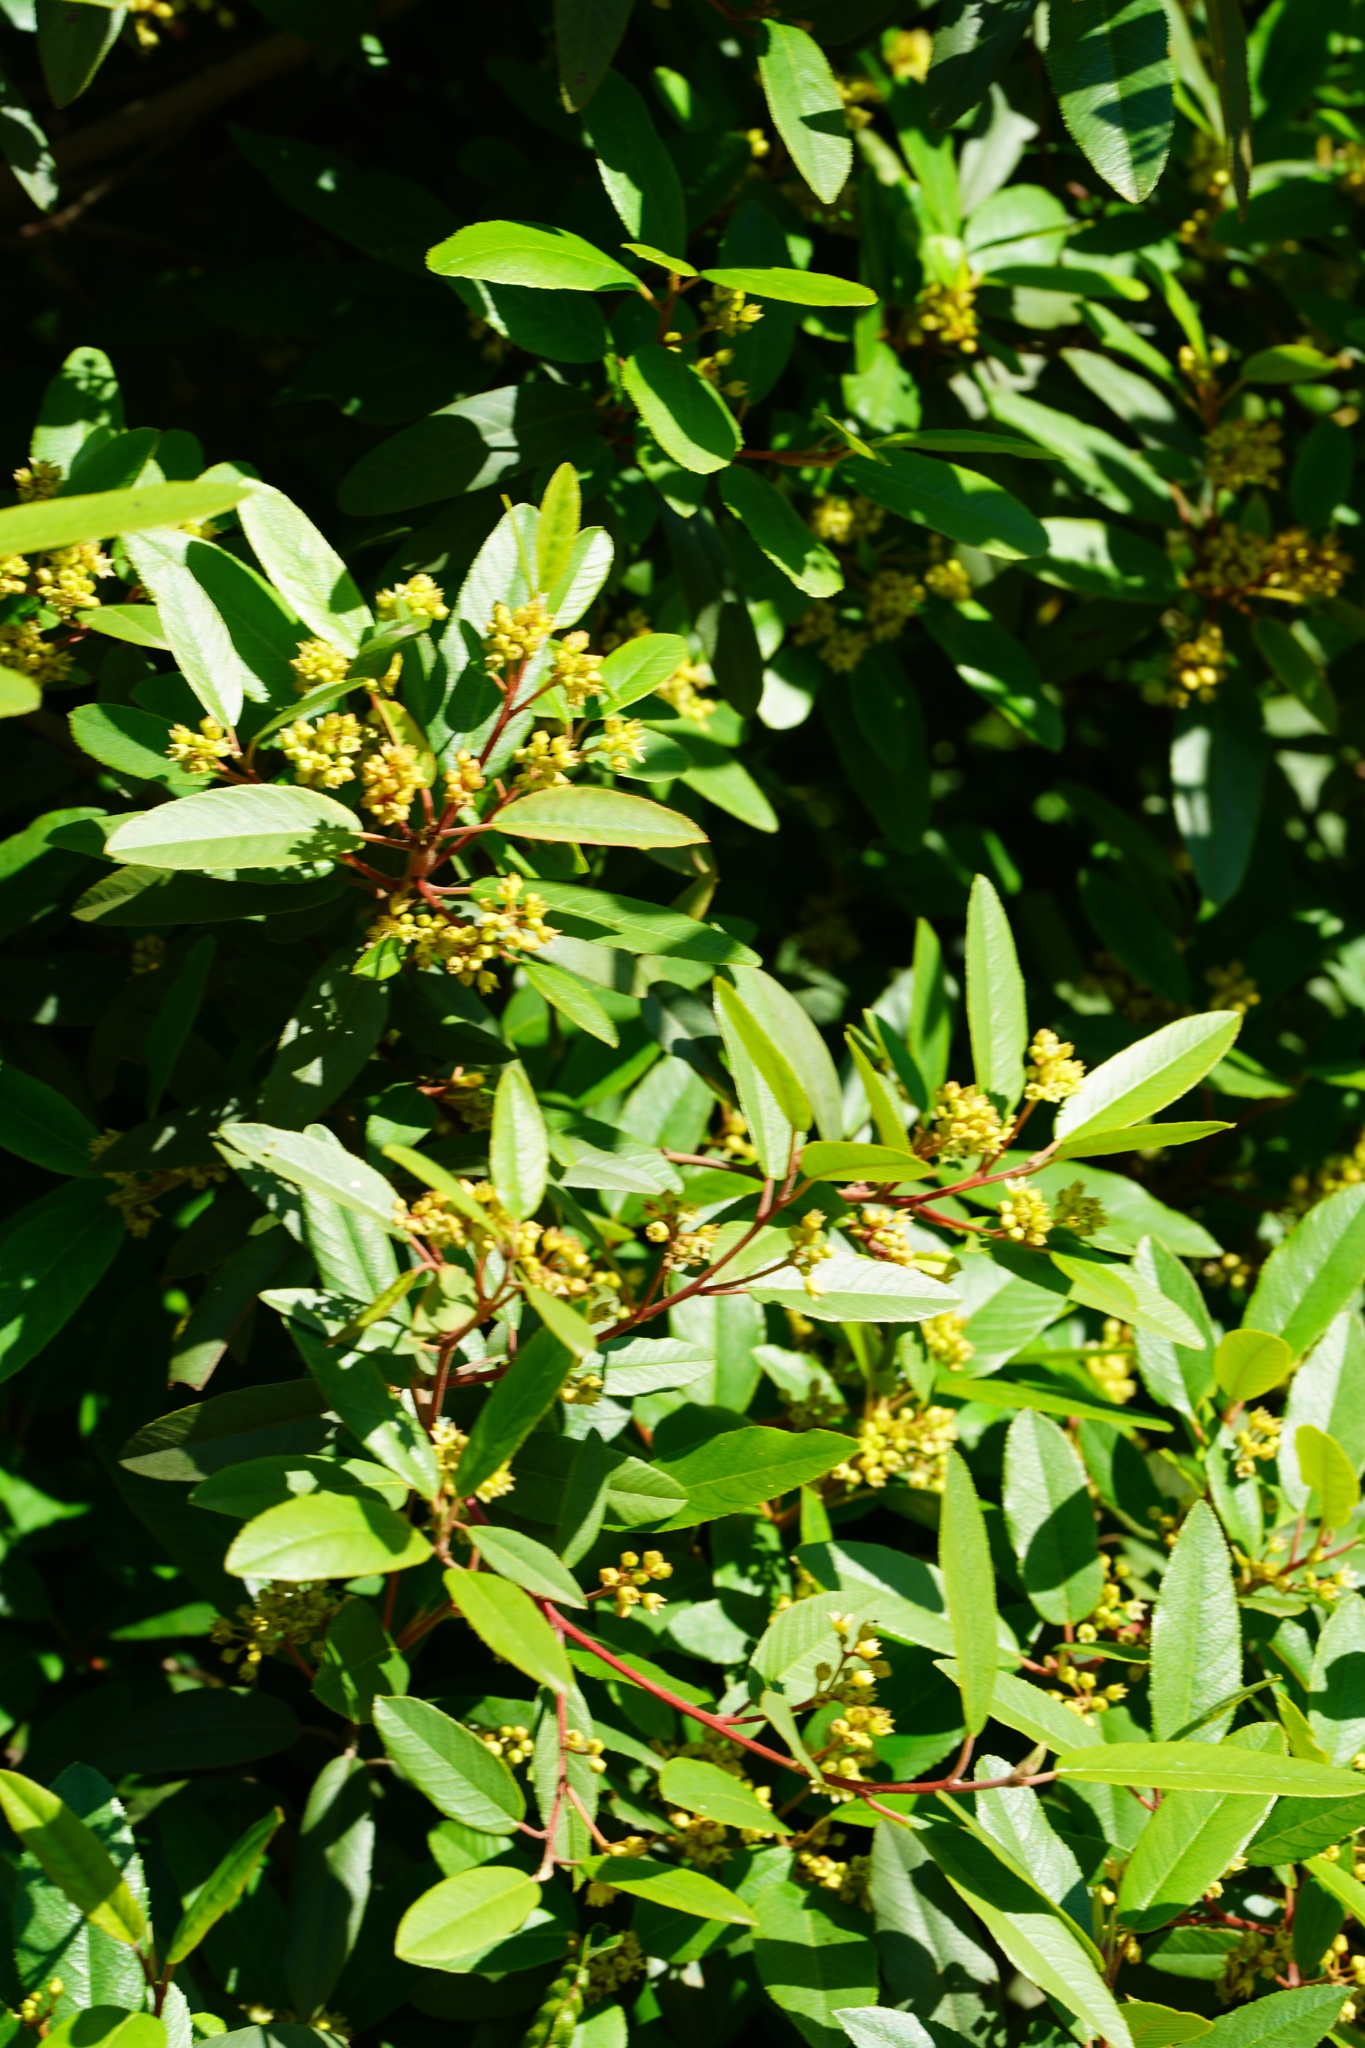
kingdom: Plantae
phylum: Tracheophyta
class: Magnoliopsida
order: Rosales
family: Rhamnaceae
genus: Frangula
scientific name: Frangula californica
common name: California buckthorn
